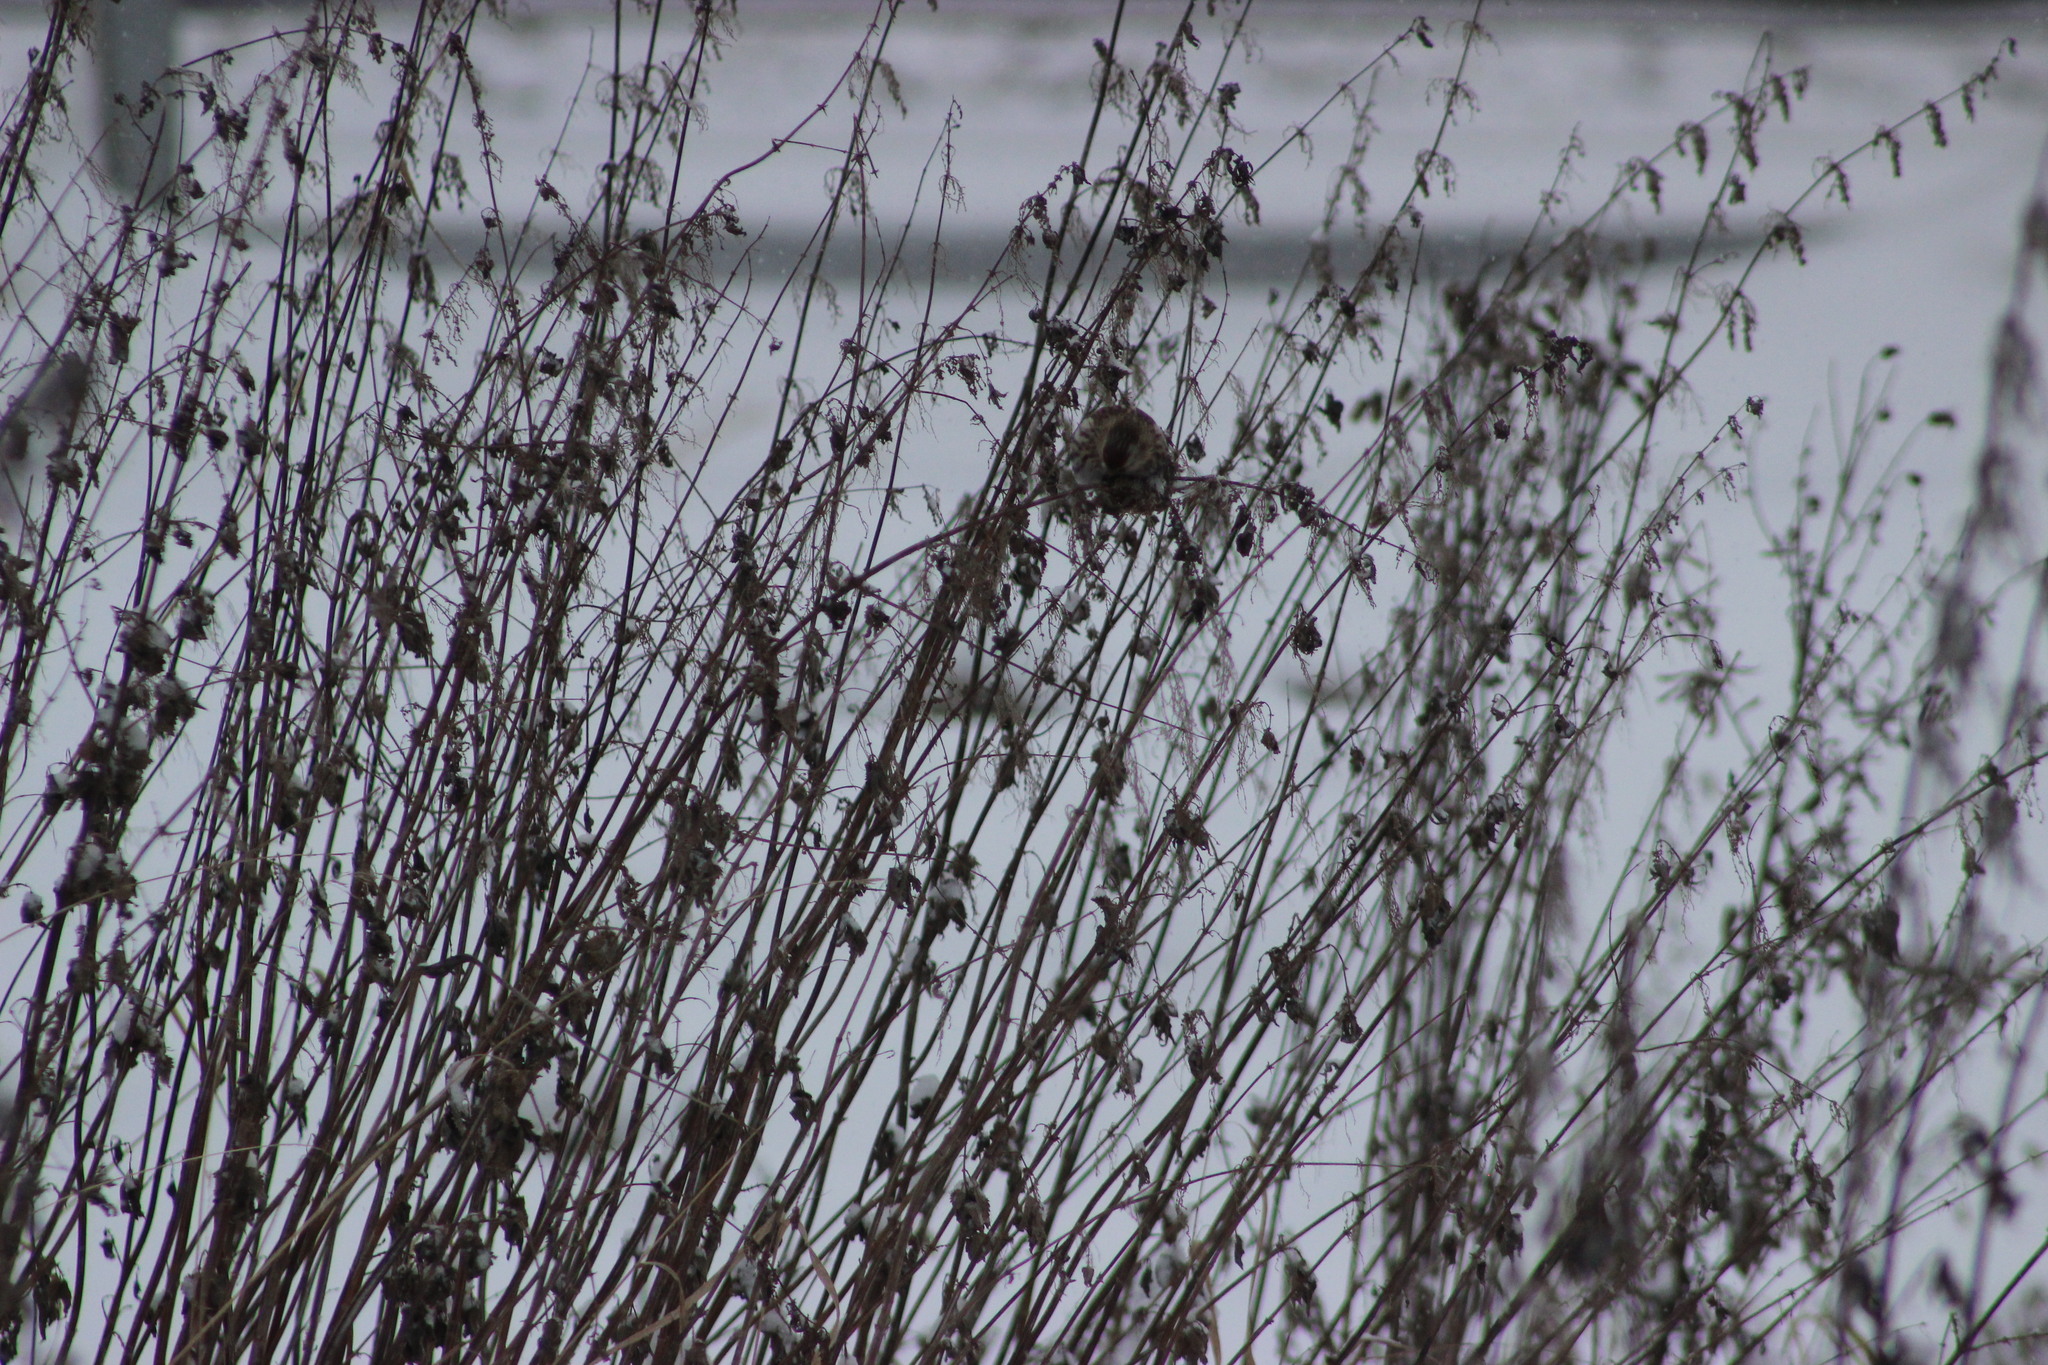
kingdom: Animalia
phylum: Chordata
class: Aves
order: Passeriformes
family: Fringillidae
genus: Acanthis
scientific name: Acanthis flammea
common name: Common redpoll
